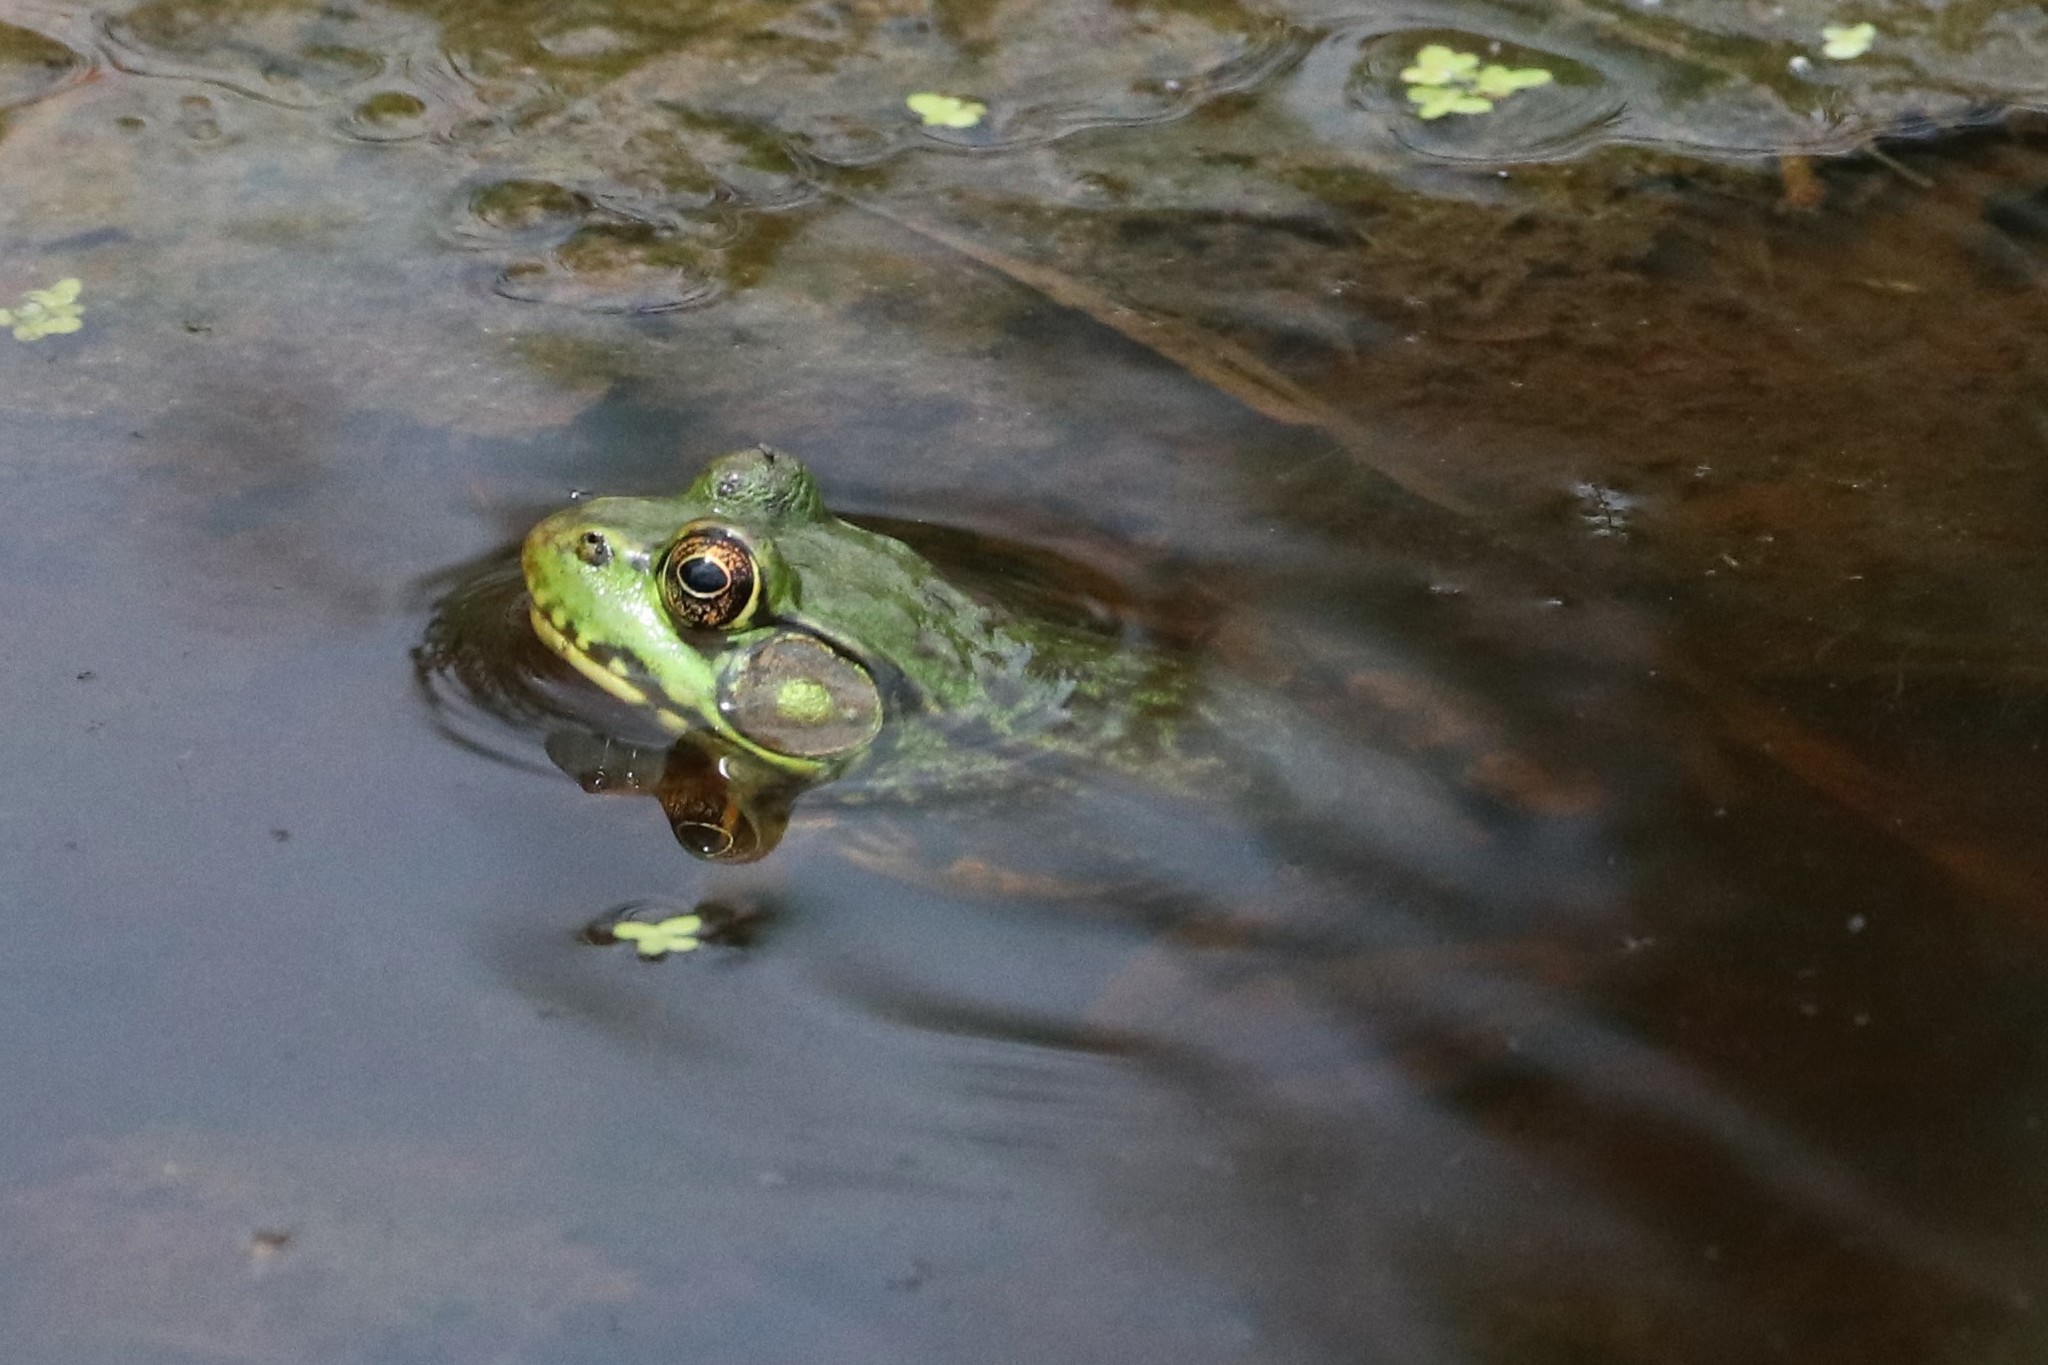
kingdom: Animalia
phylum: Chordata
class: Amphibia
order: Anura
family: Ranidae
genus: Lithobates
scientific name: Lithobates clamitans
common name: Green frog
